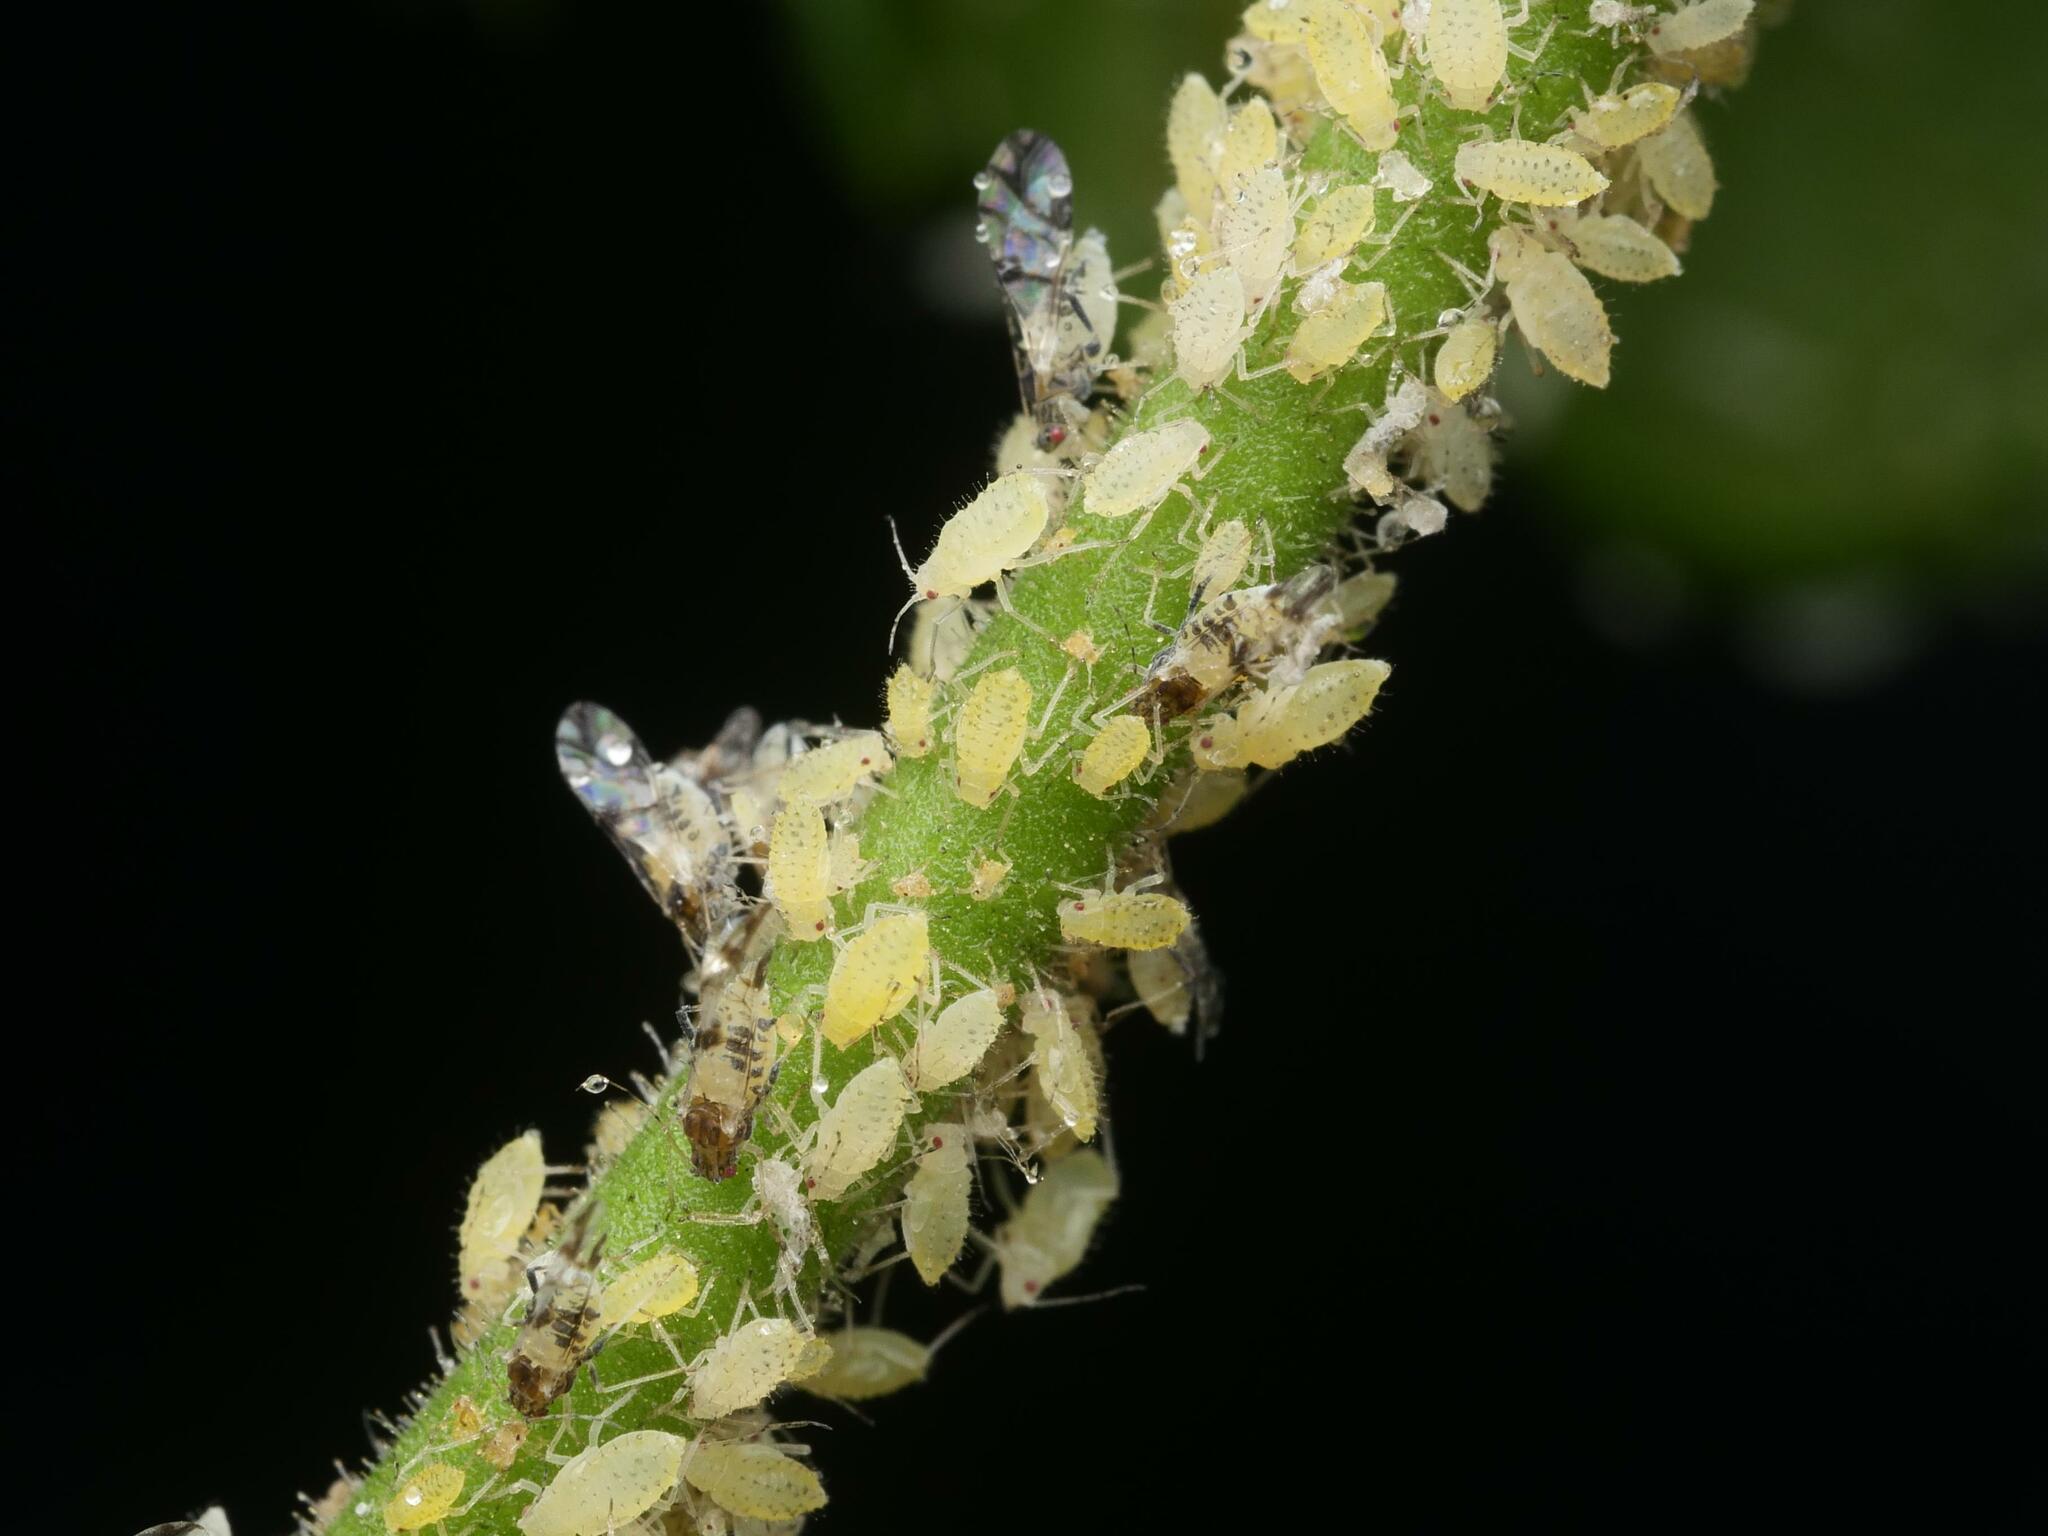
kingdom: Animalia
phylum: Arthropoda
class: Insecta
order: Hemiptera
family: Aphididae
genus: Tinocallis
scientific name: Tinocallis platani
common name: Elm aphid
